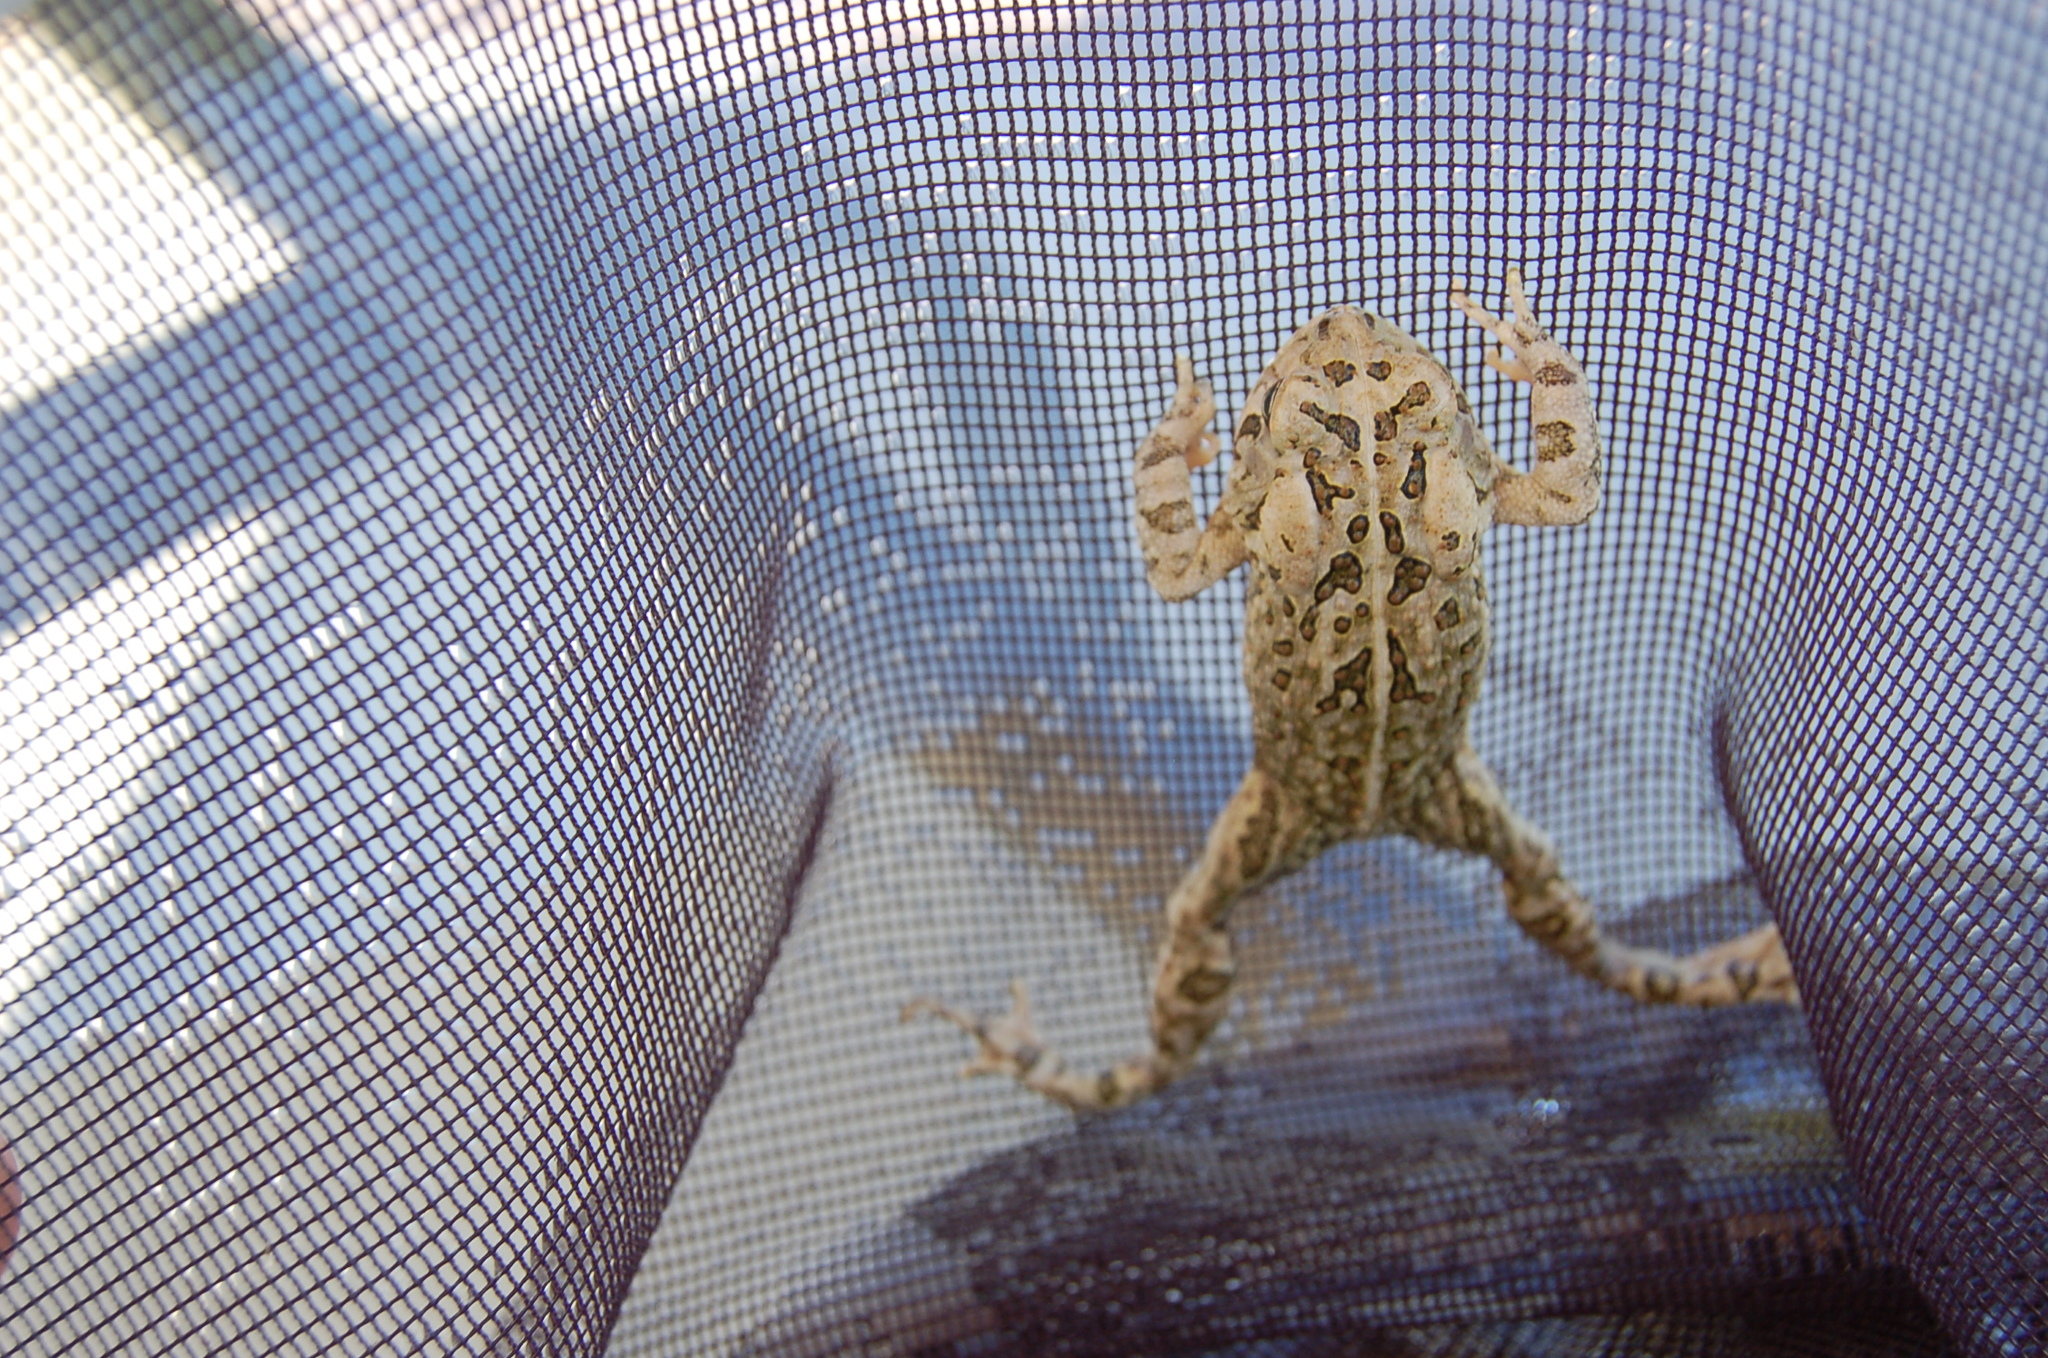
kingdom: Animalia
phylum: Chordata
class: Amphibia
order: Anura
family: Bufonidae
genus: Anaxyrus
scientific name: Anaxyrus fowleri
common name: Fowler's toad
